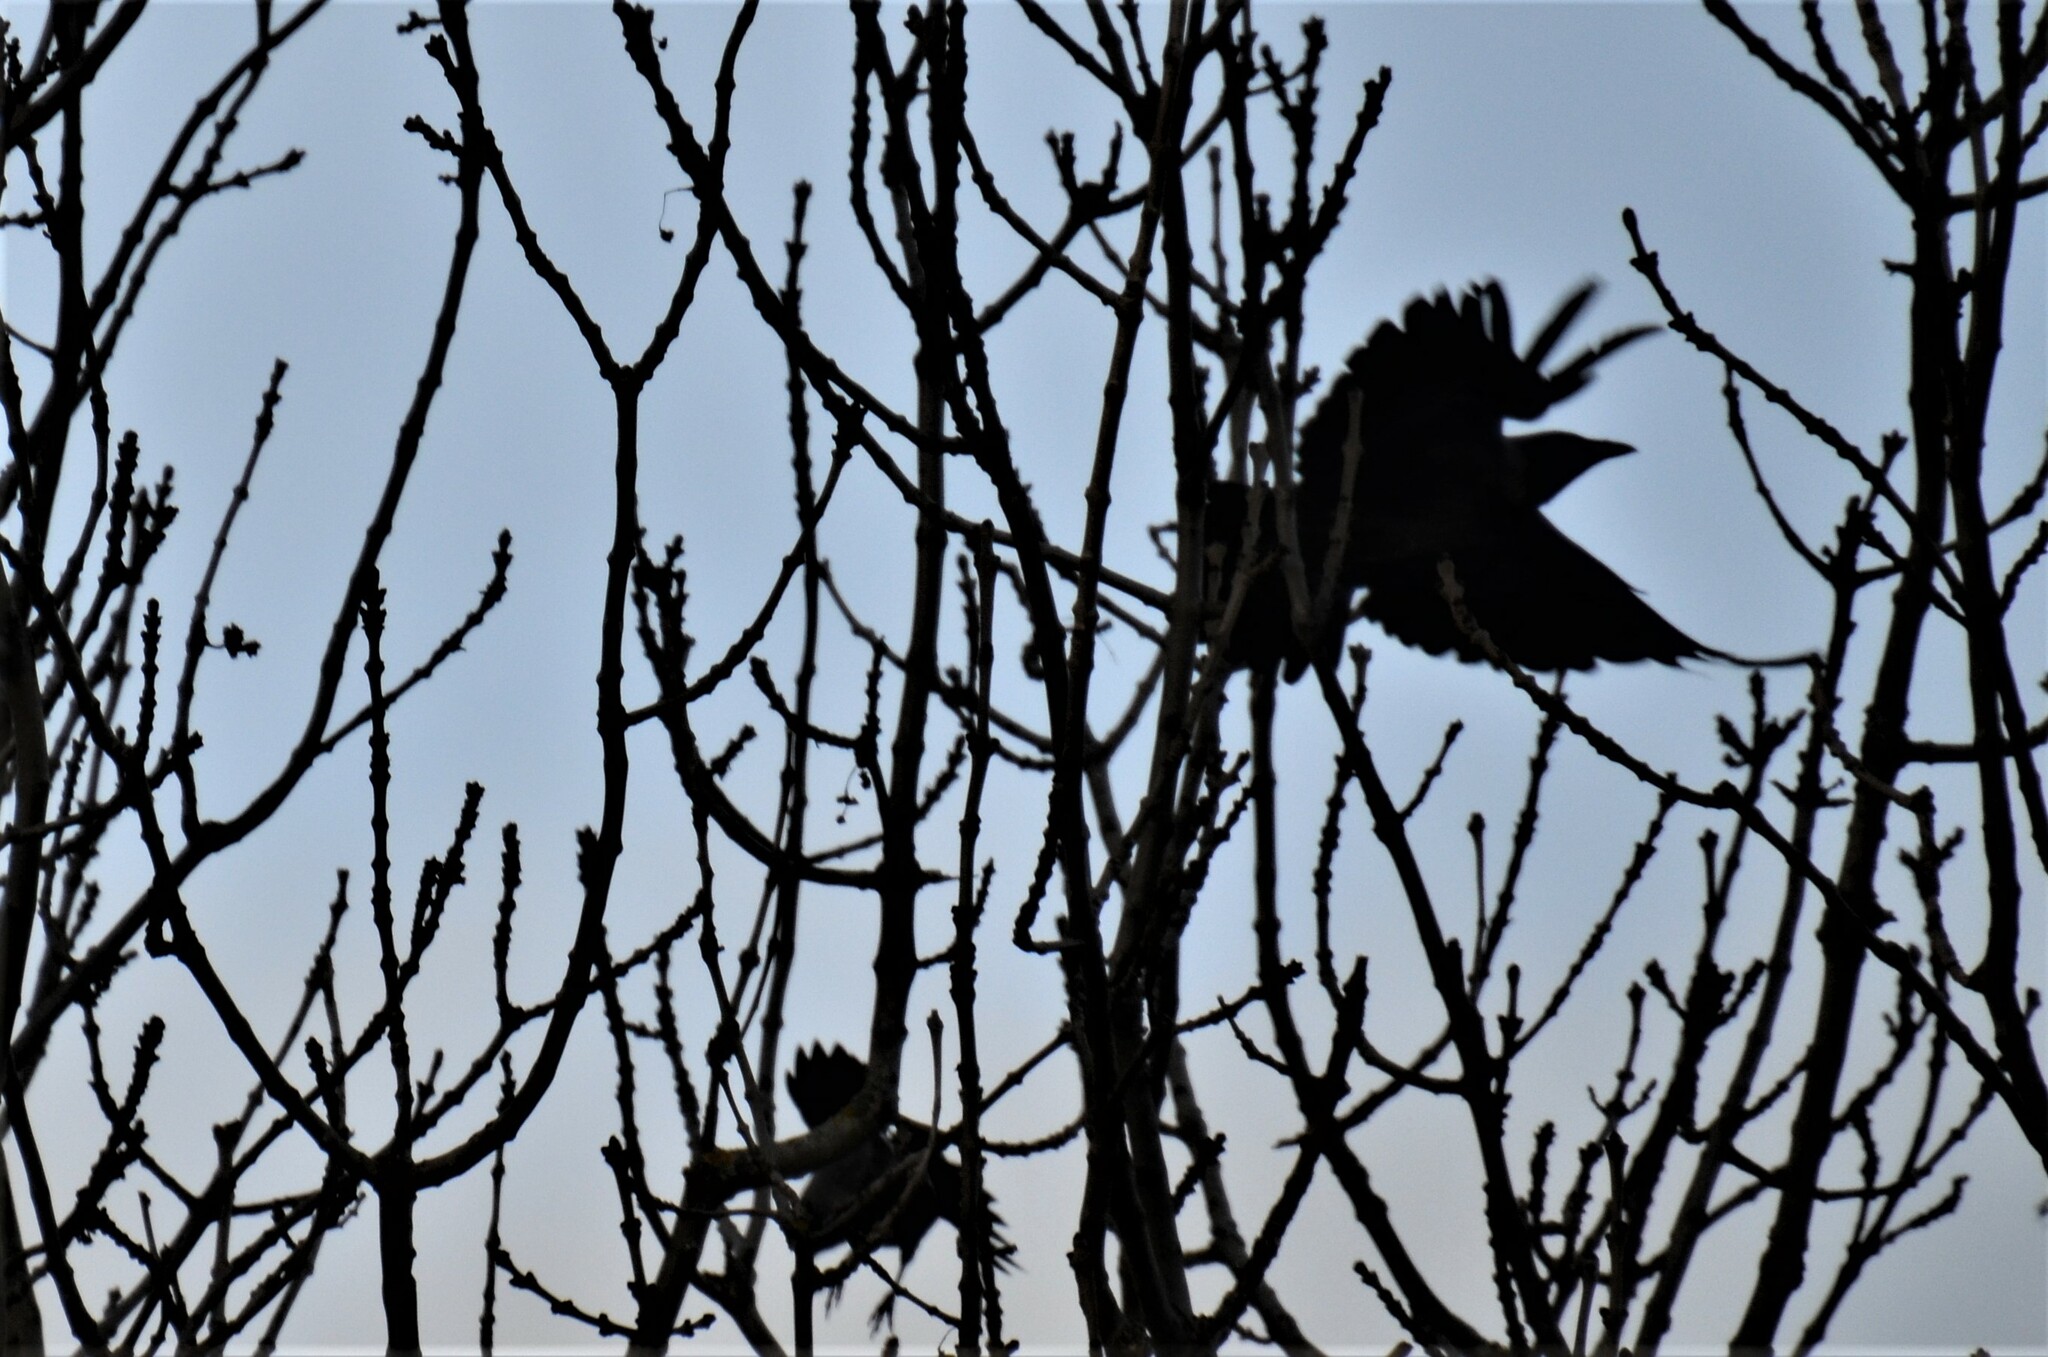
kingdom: Animalia
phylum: Chordata
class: Aves
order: Passeriformes
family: Corvidae
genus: Corvus
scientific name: Corvus corone
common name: Carrion crow
